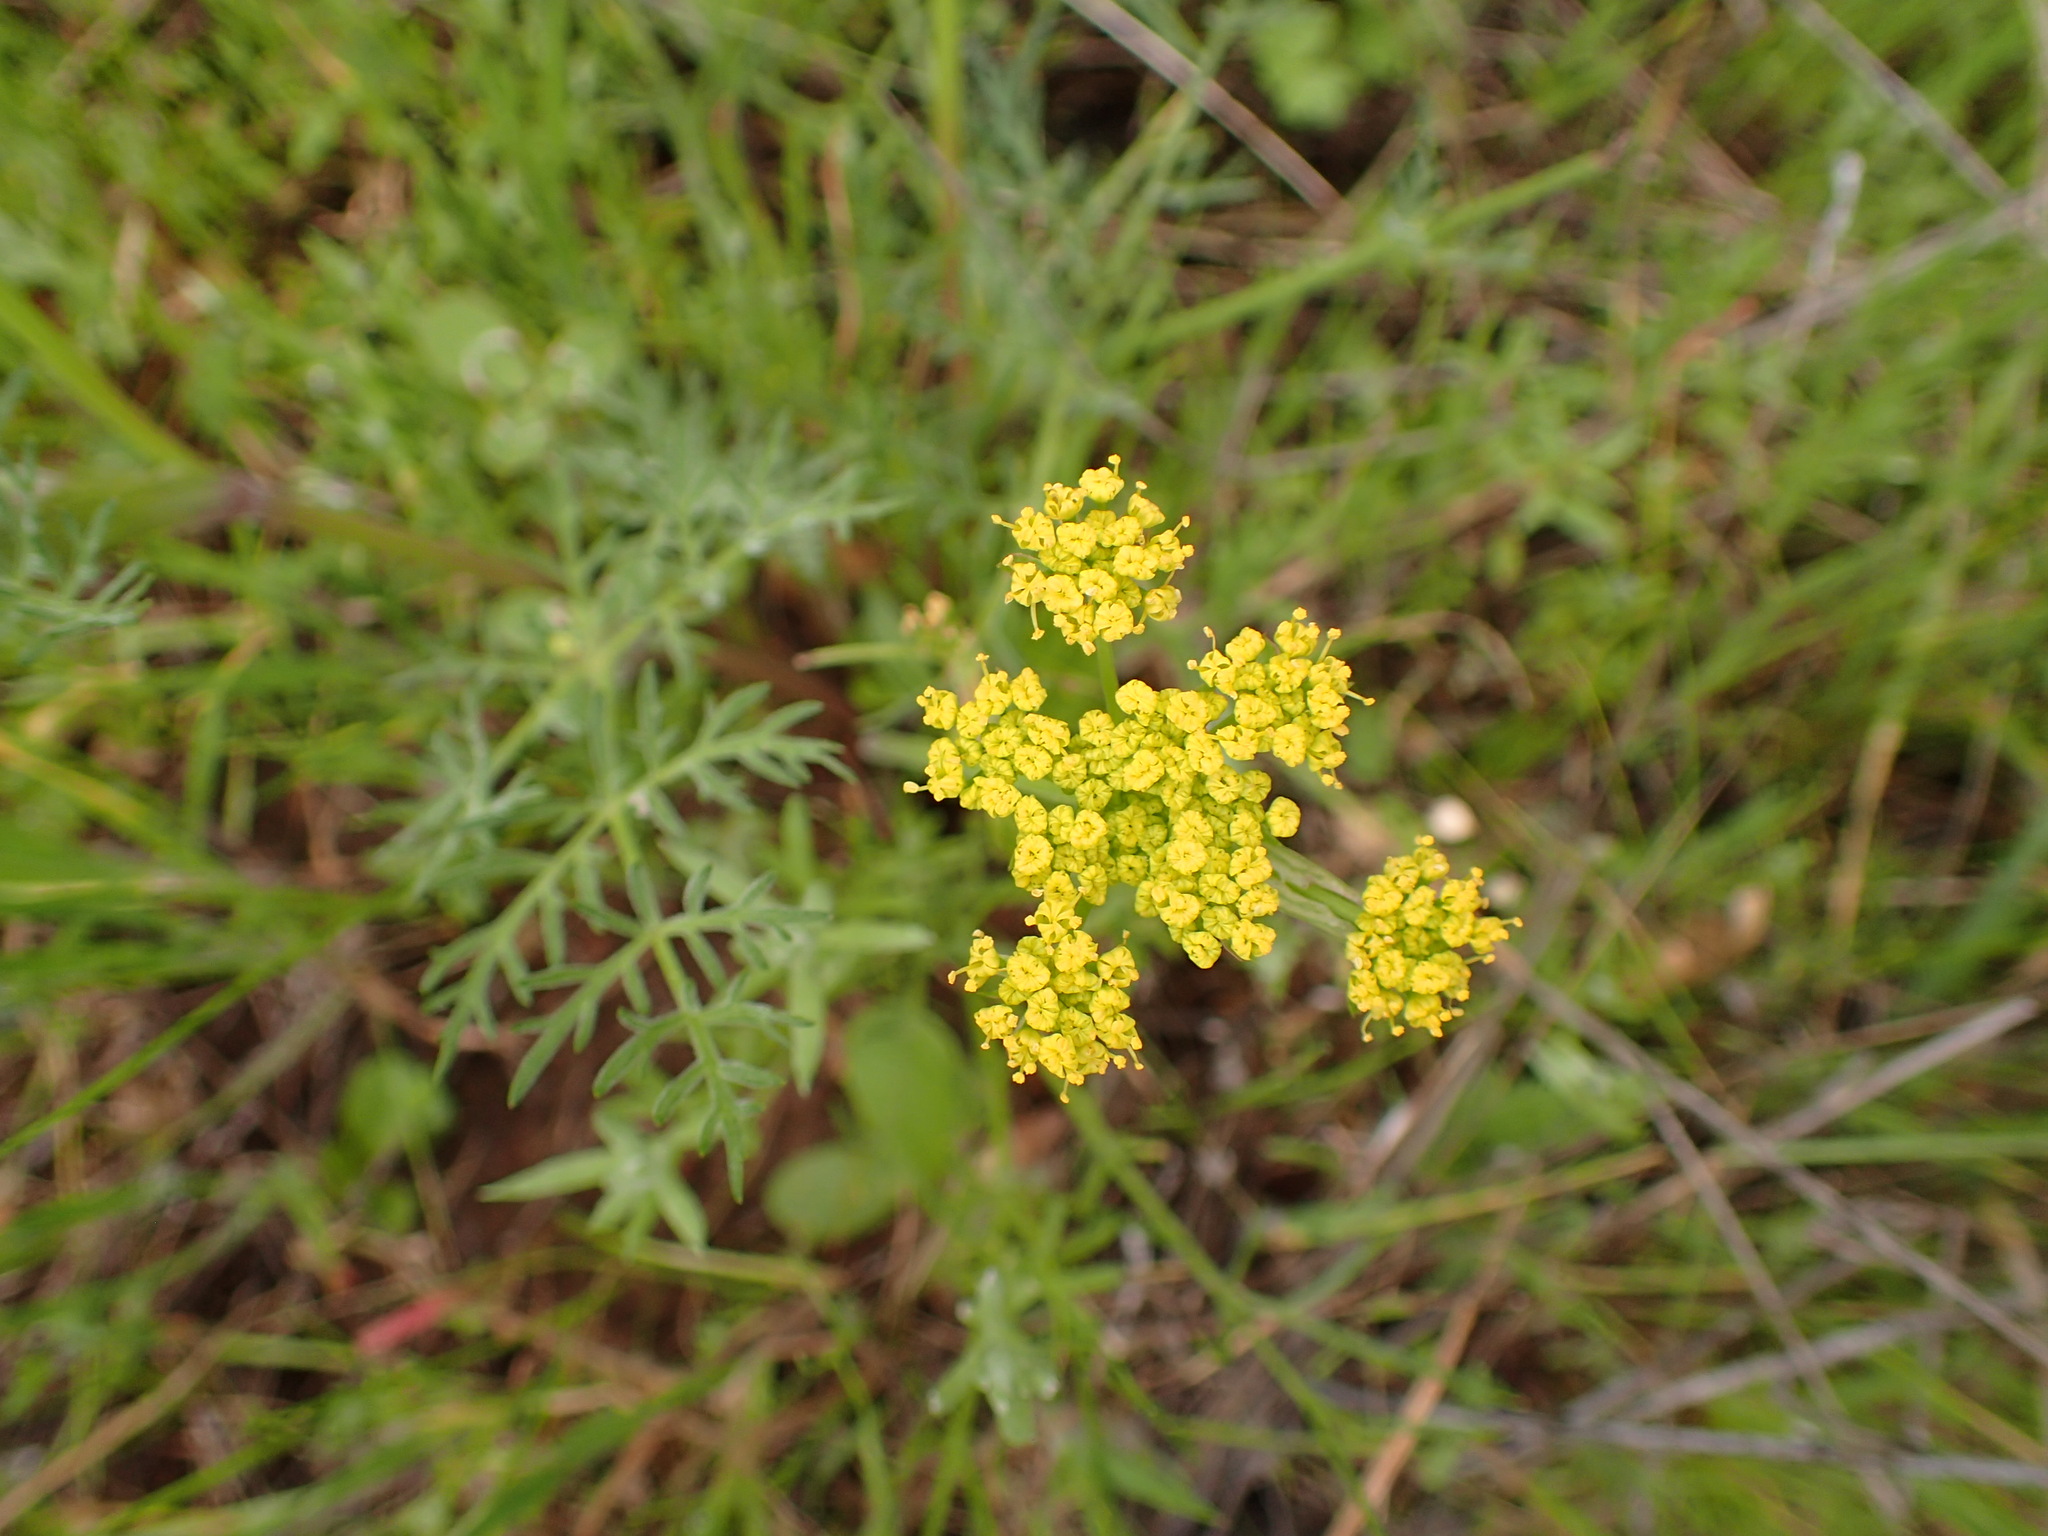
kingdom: Plantae
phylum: Tracheophyta
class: Magnoliopsida
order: Apiales
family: Apiaceae
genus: Lomatium
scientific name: Lomatium utriculatum
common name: Fine-leaf desert-parsley
